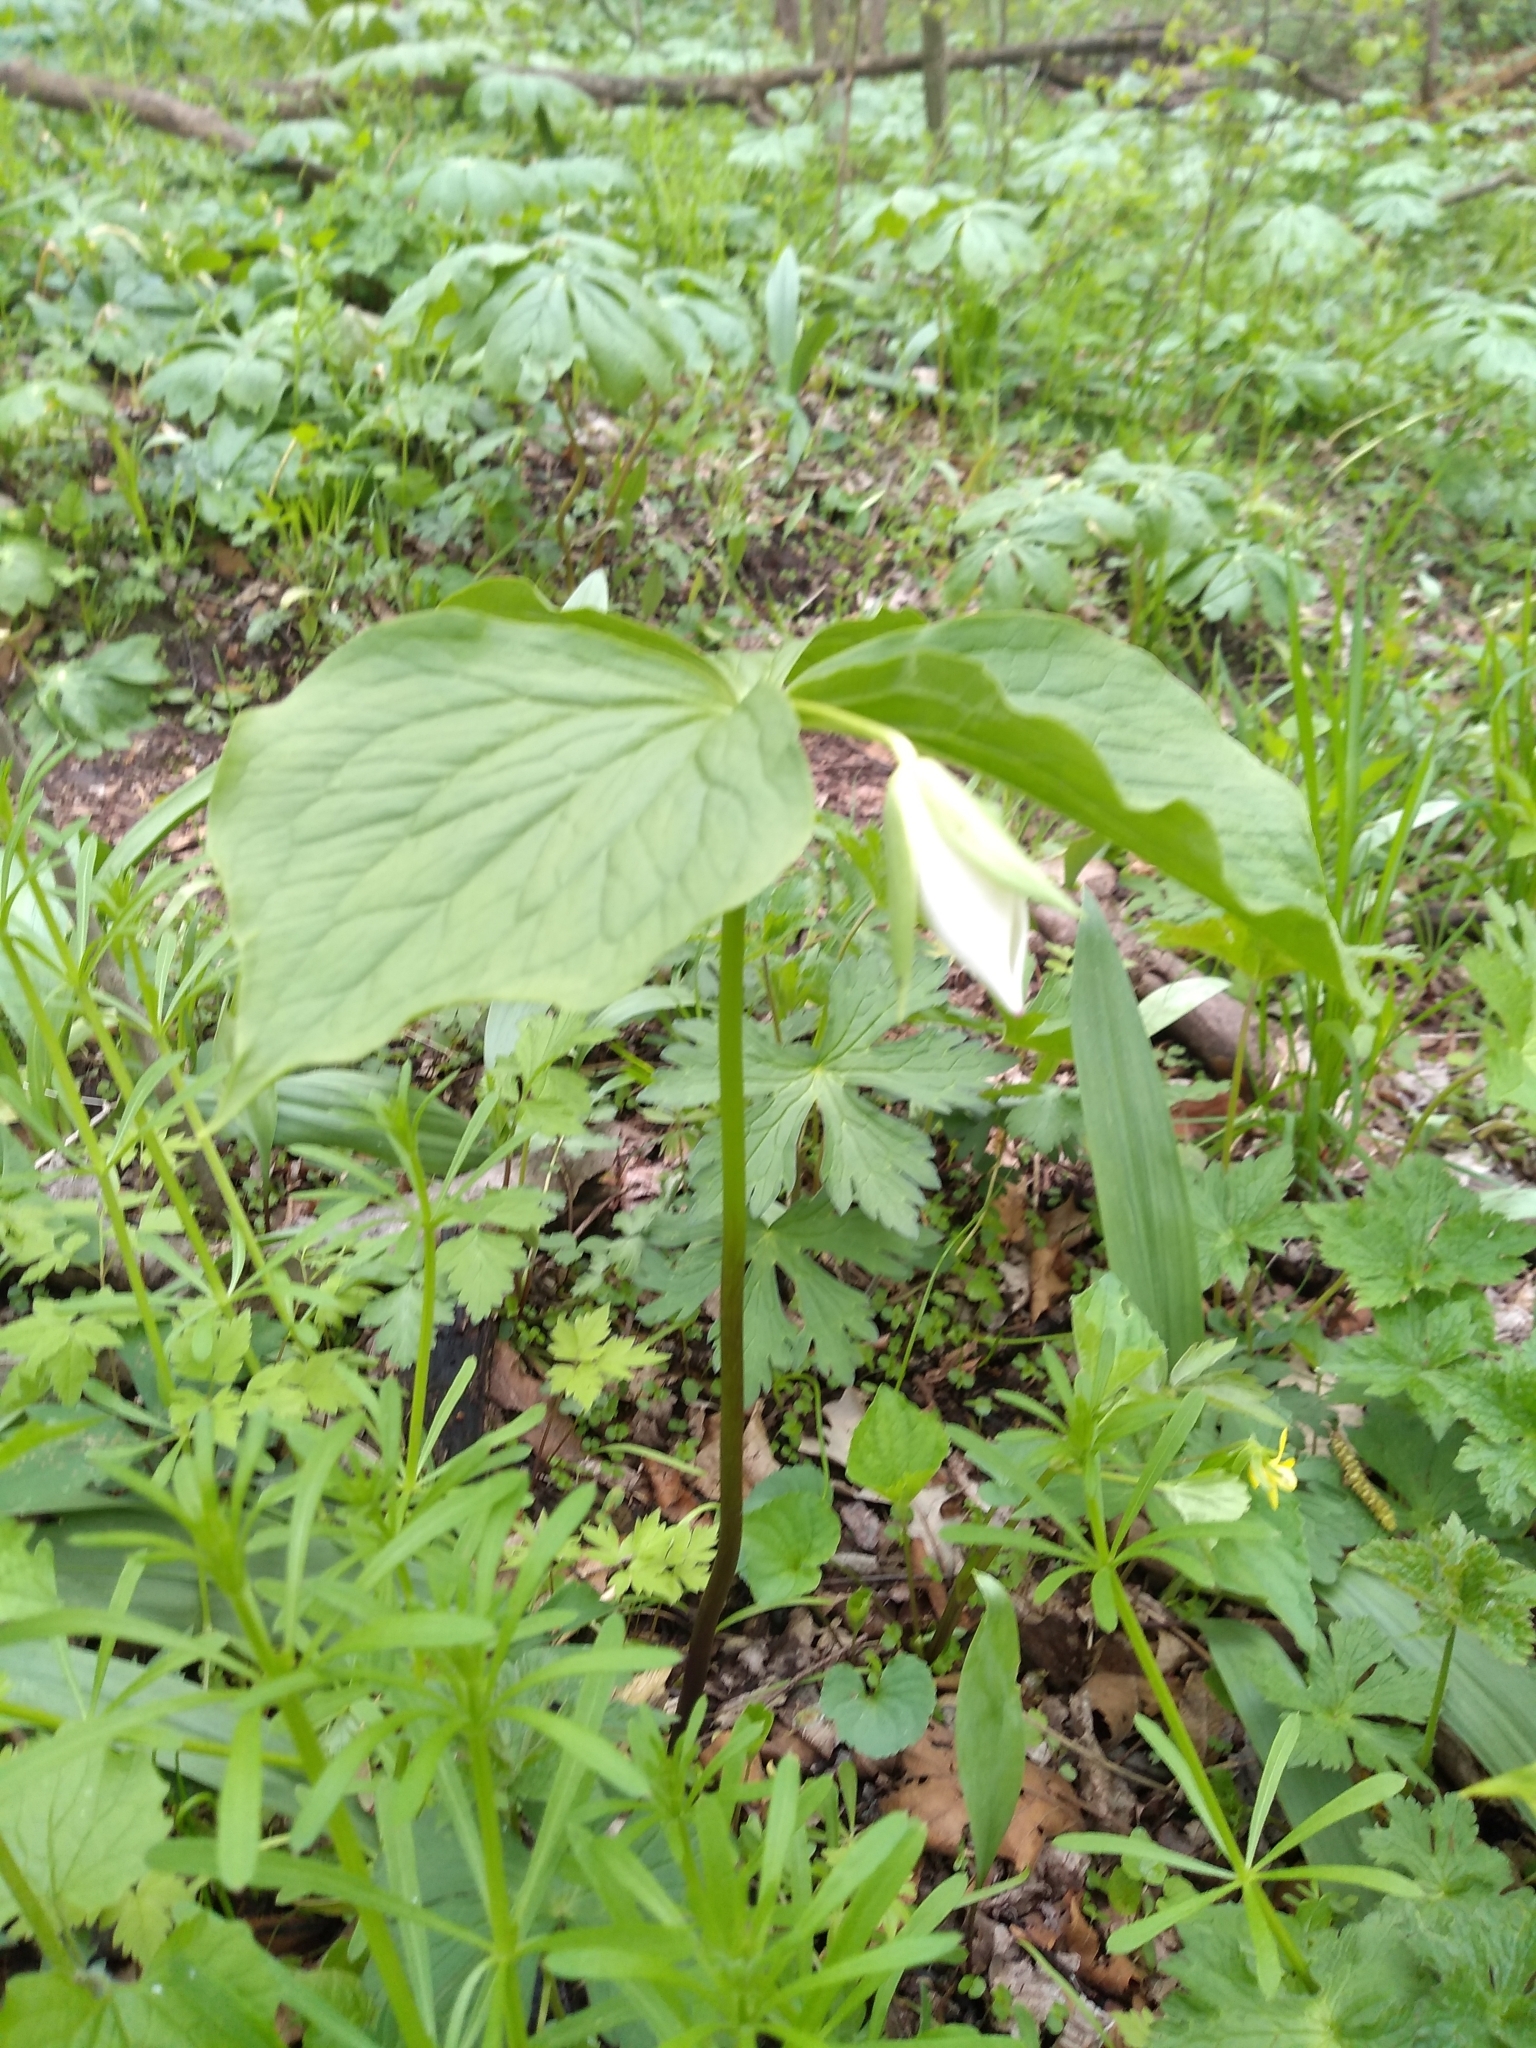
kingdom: Plantae
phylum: Tracheophyta
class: Liliopsida
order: Liliales
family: Melanthiaceae
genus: Trillium
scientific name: Trillium flexipes
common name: Drooping trillium
